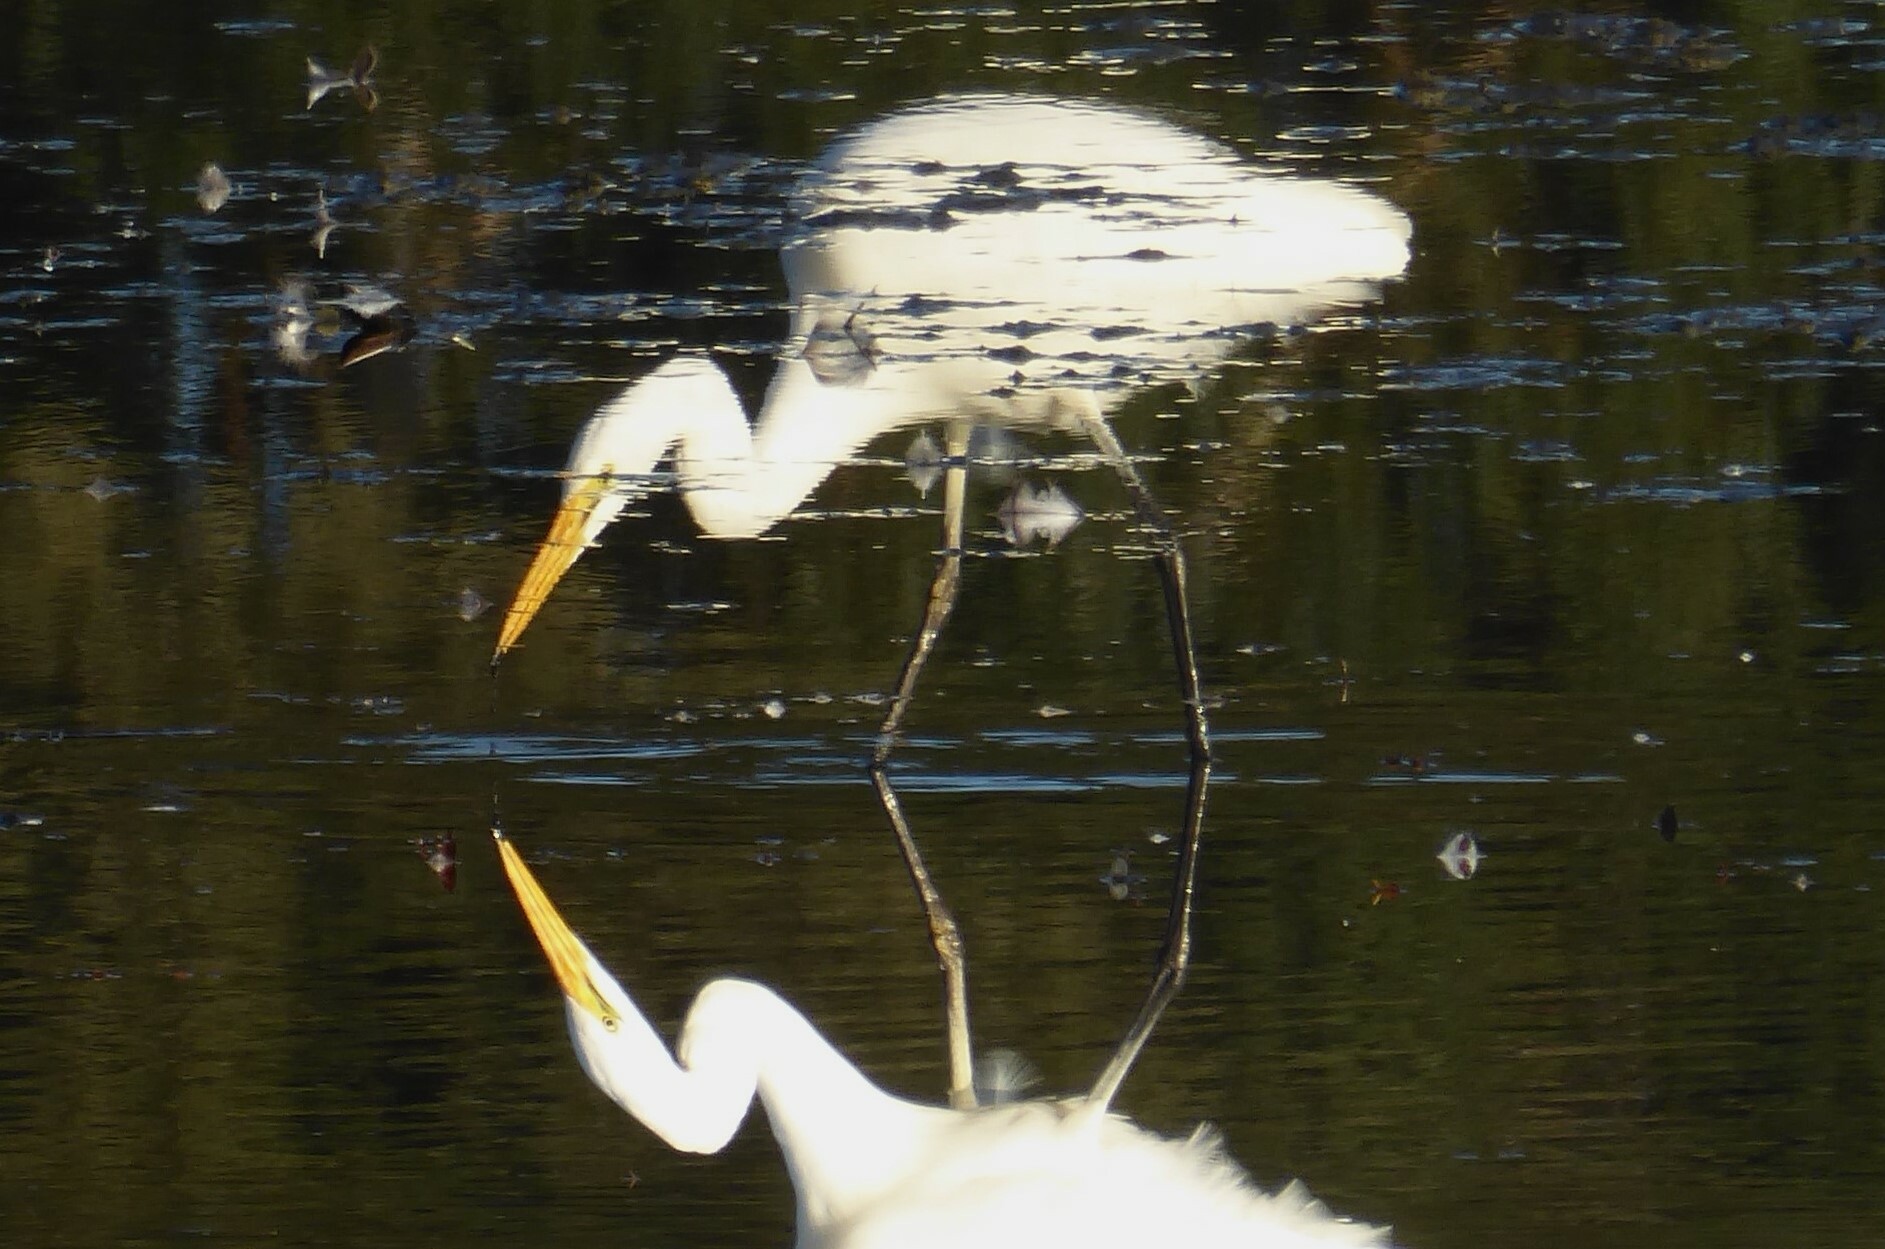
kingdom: Animalia
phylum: Chordata
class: Aves
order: Pelecaniformes
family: Ardeidae
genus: Ardea
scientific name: Ardea modesta
